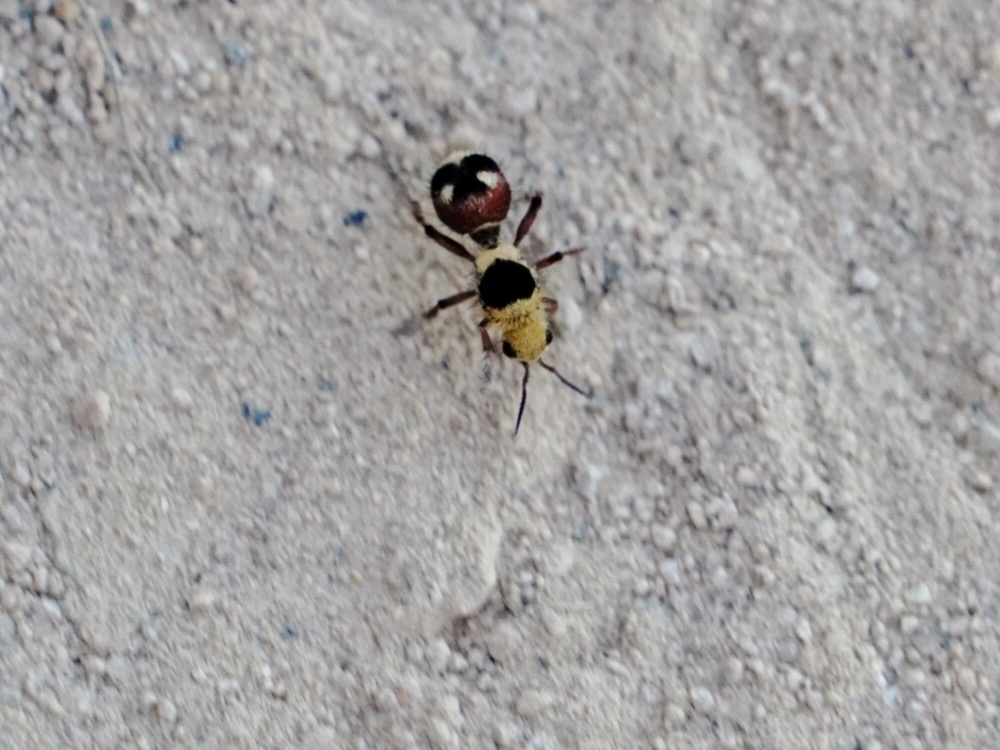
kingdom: Animalia
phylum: Arthropoda
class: Insecta
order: Hymenoptera
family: Mutillidae
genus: Dasymutilla
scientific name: Dasymutilla
